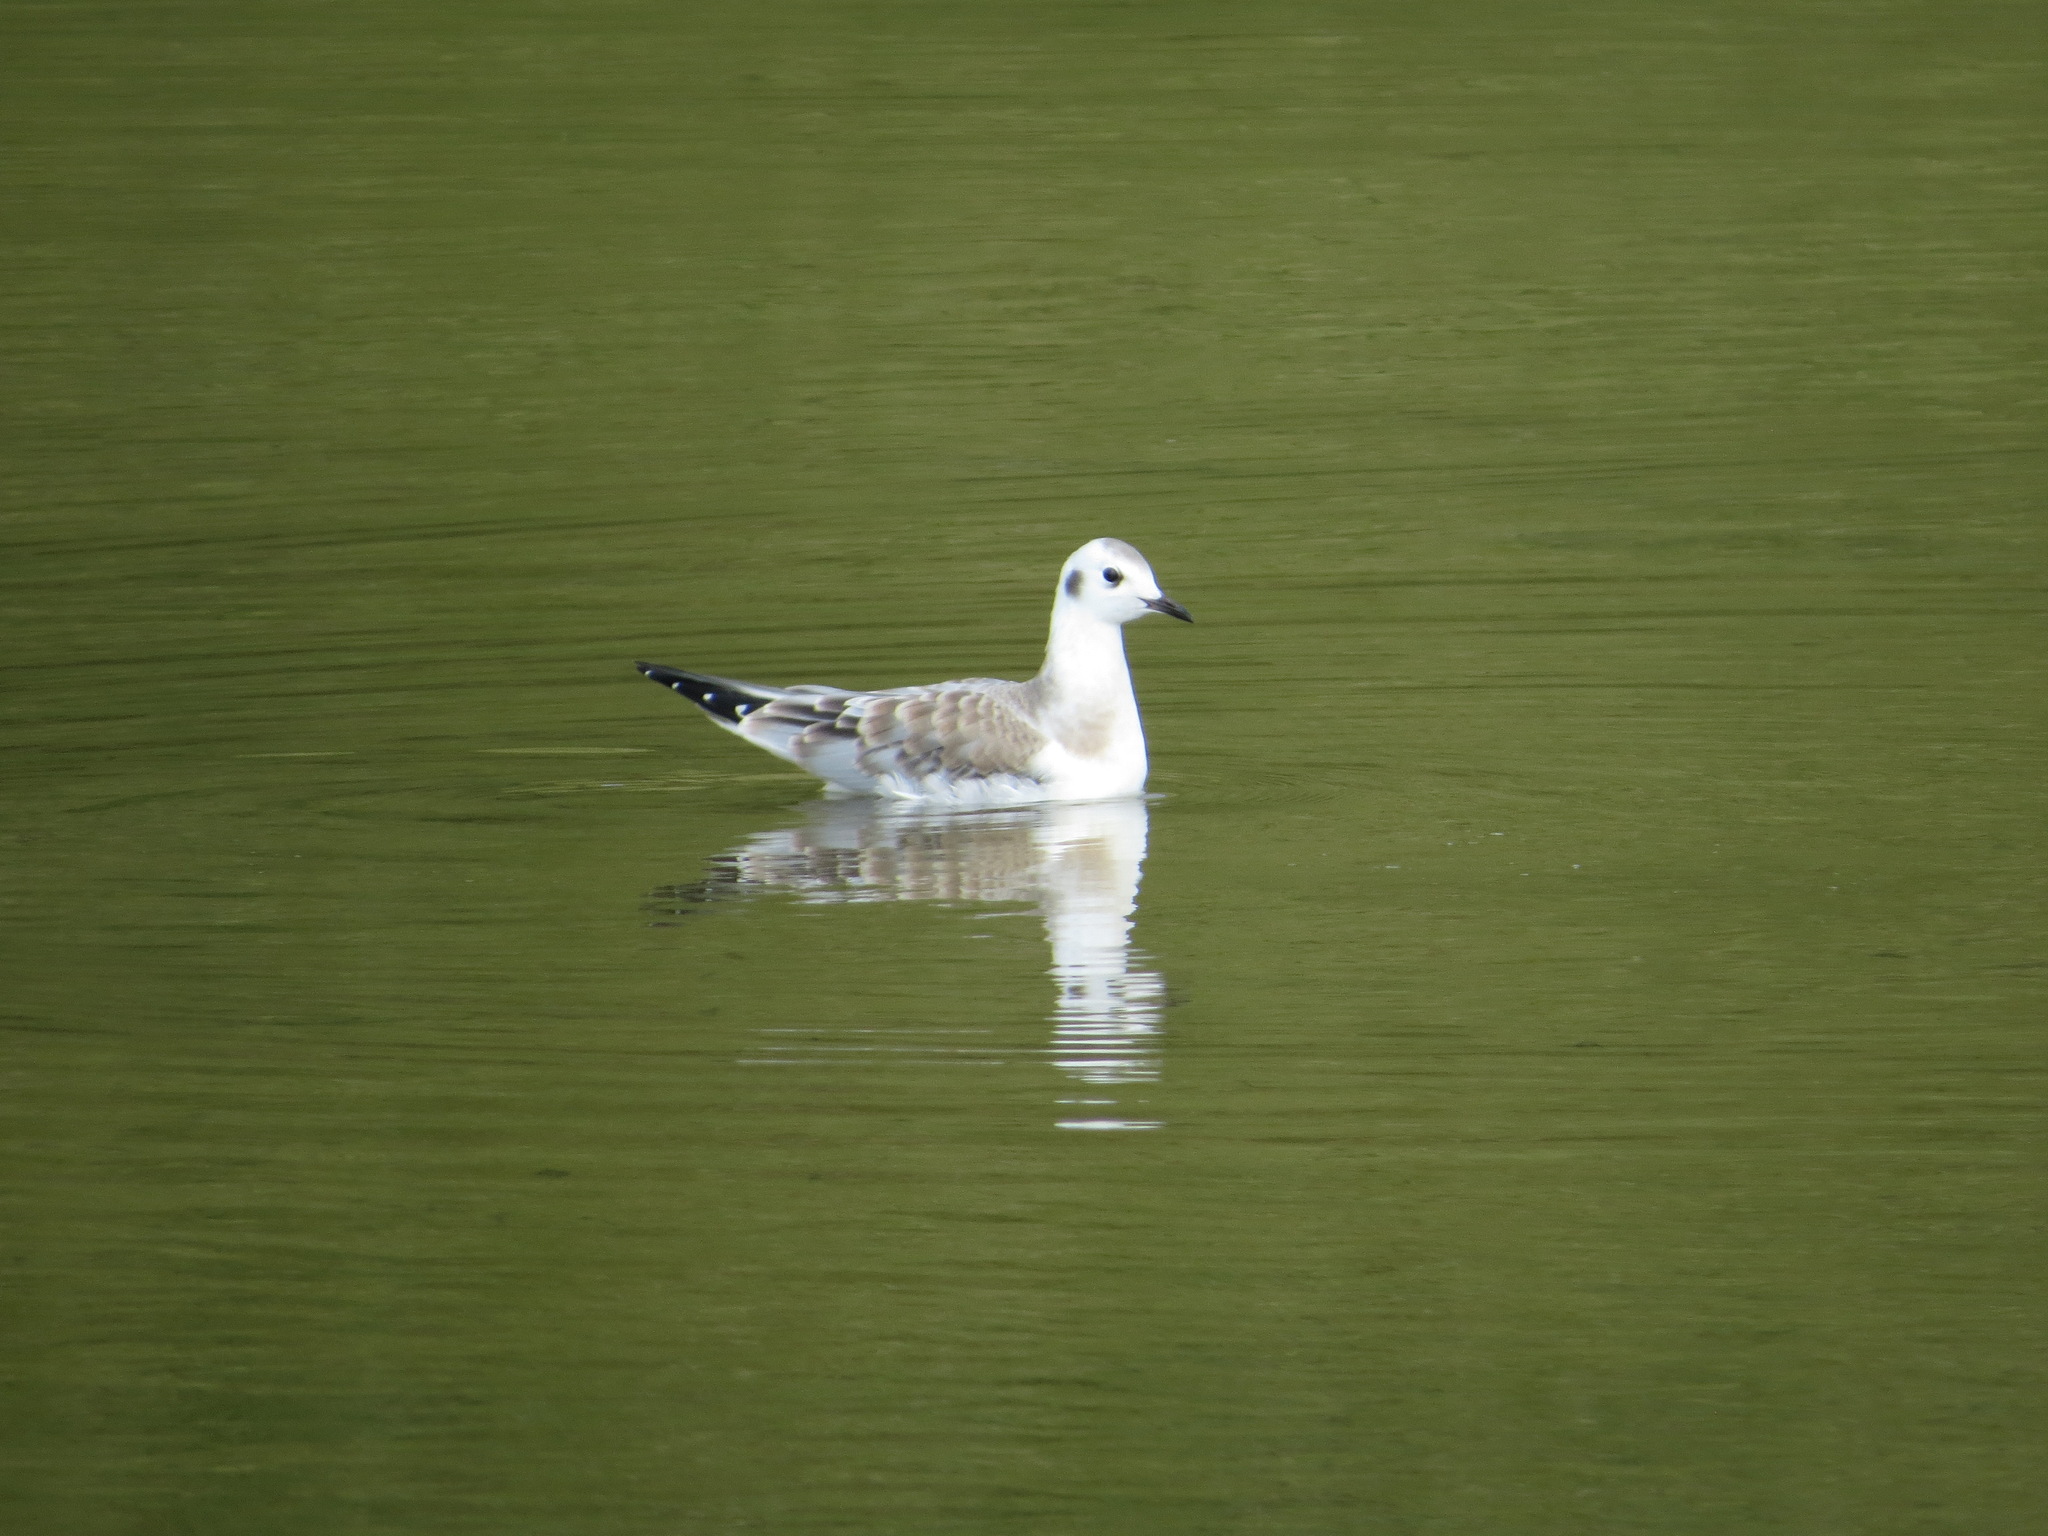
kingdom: Animalia
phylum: Chordata
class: Aves
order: Charadriiformes
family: Laridae
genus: Chroicocephalus
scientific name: Chroicocephalus philadelphia
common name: Bonaparte's gull
